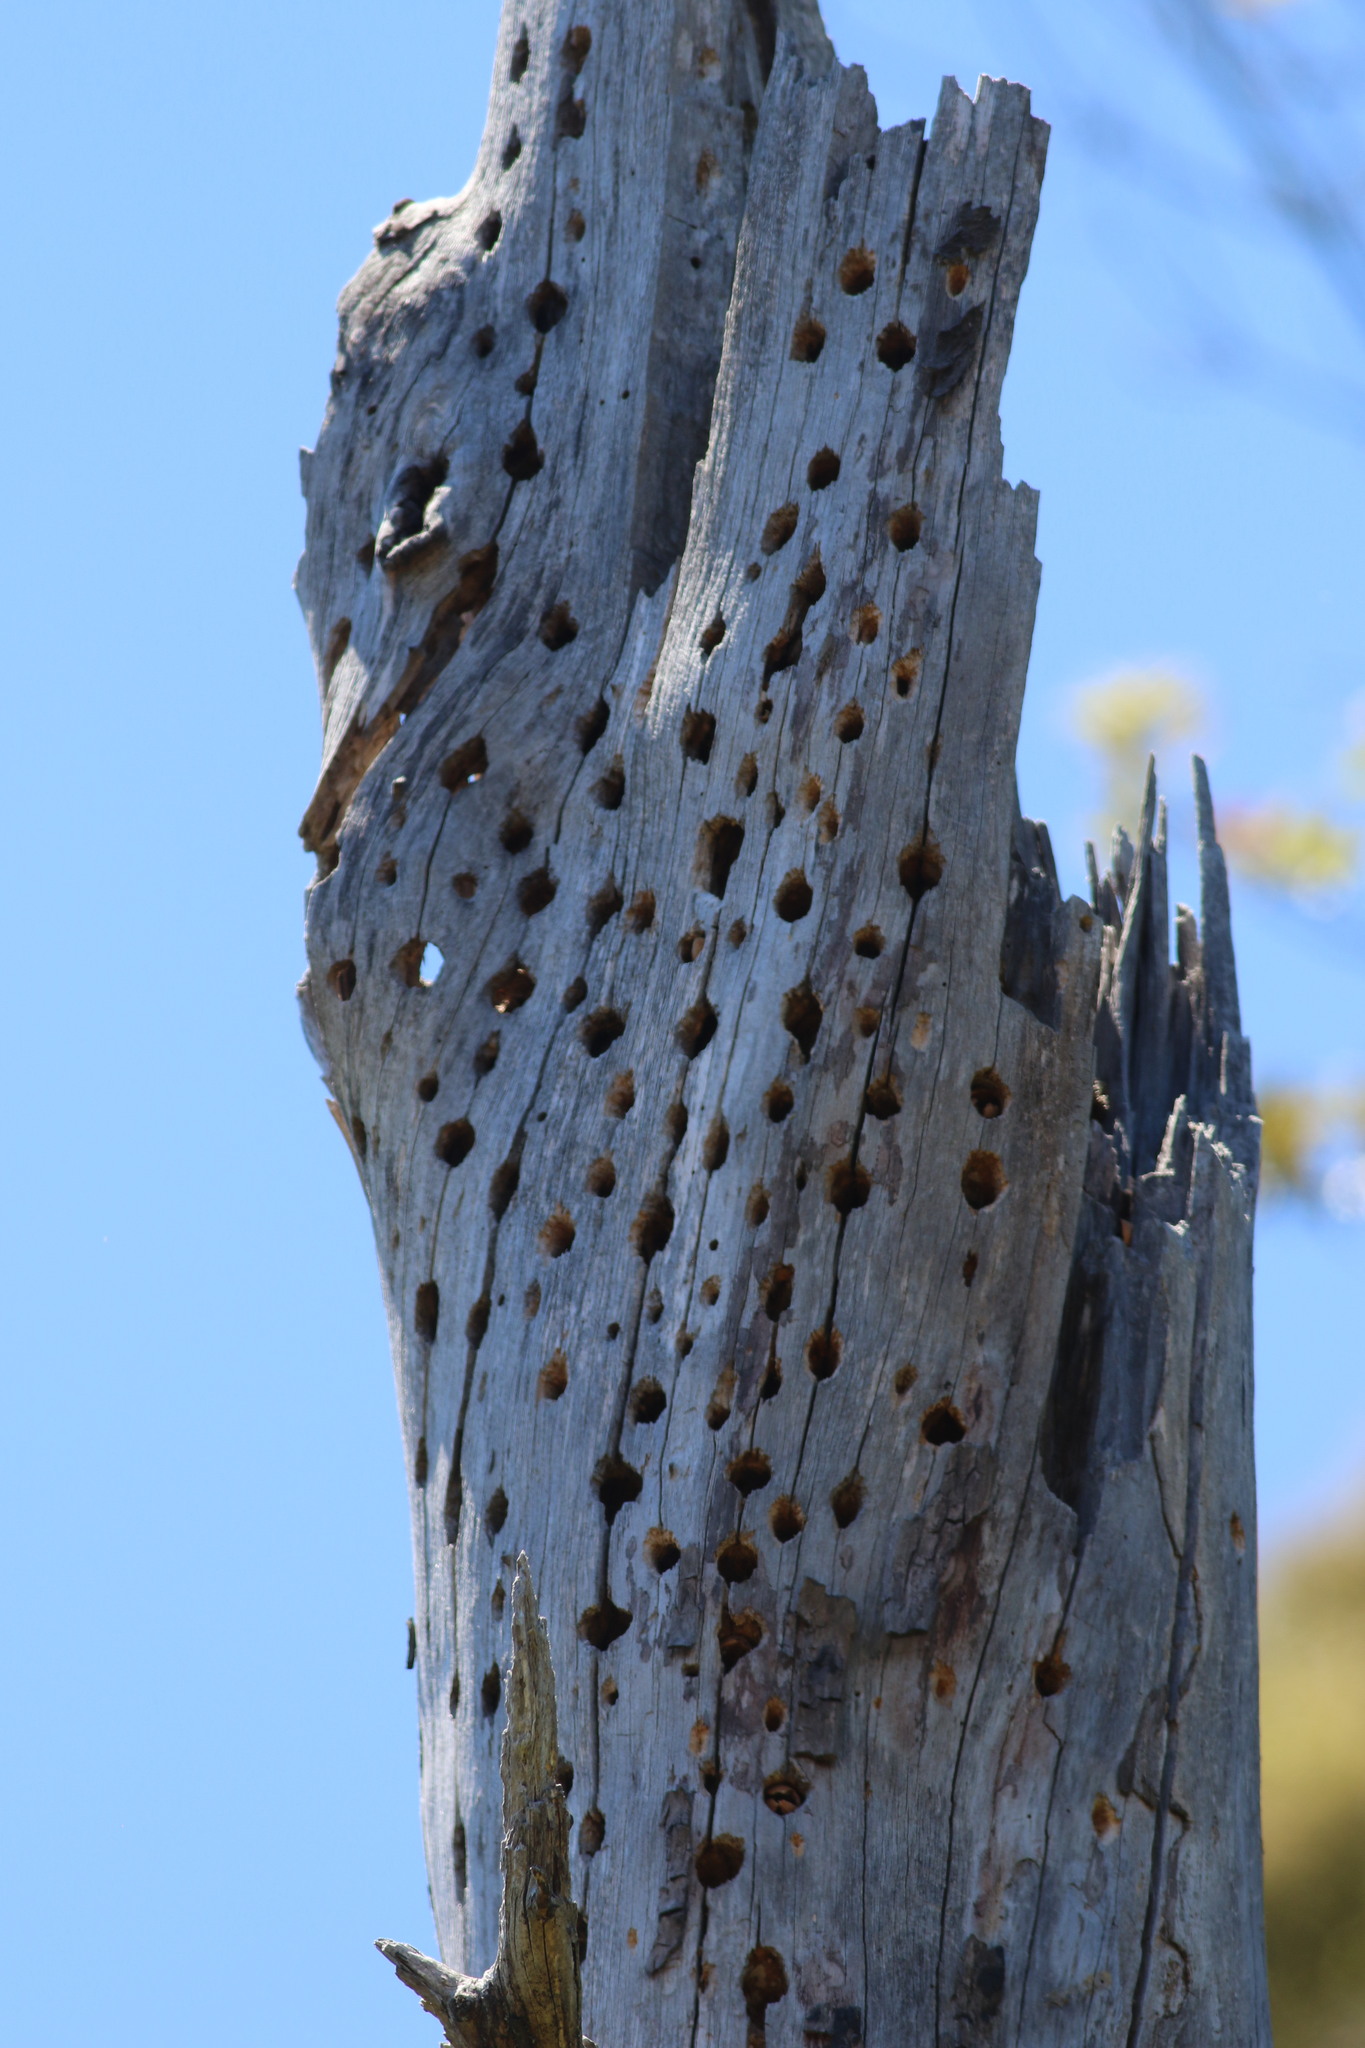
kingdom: Animalia
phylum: Chordata
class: Aves
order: Piciformes
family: Picidae
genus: Melanerpes
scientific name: Melanerpes formicivorus
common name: Acorn woodpecker
